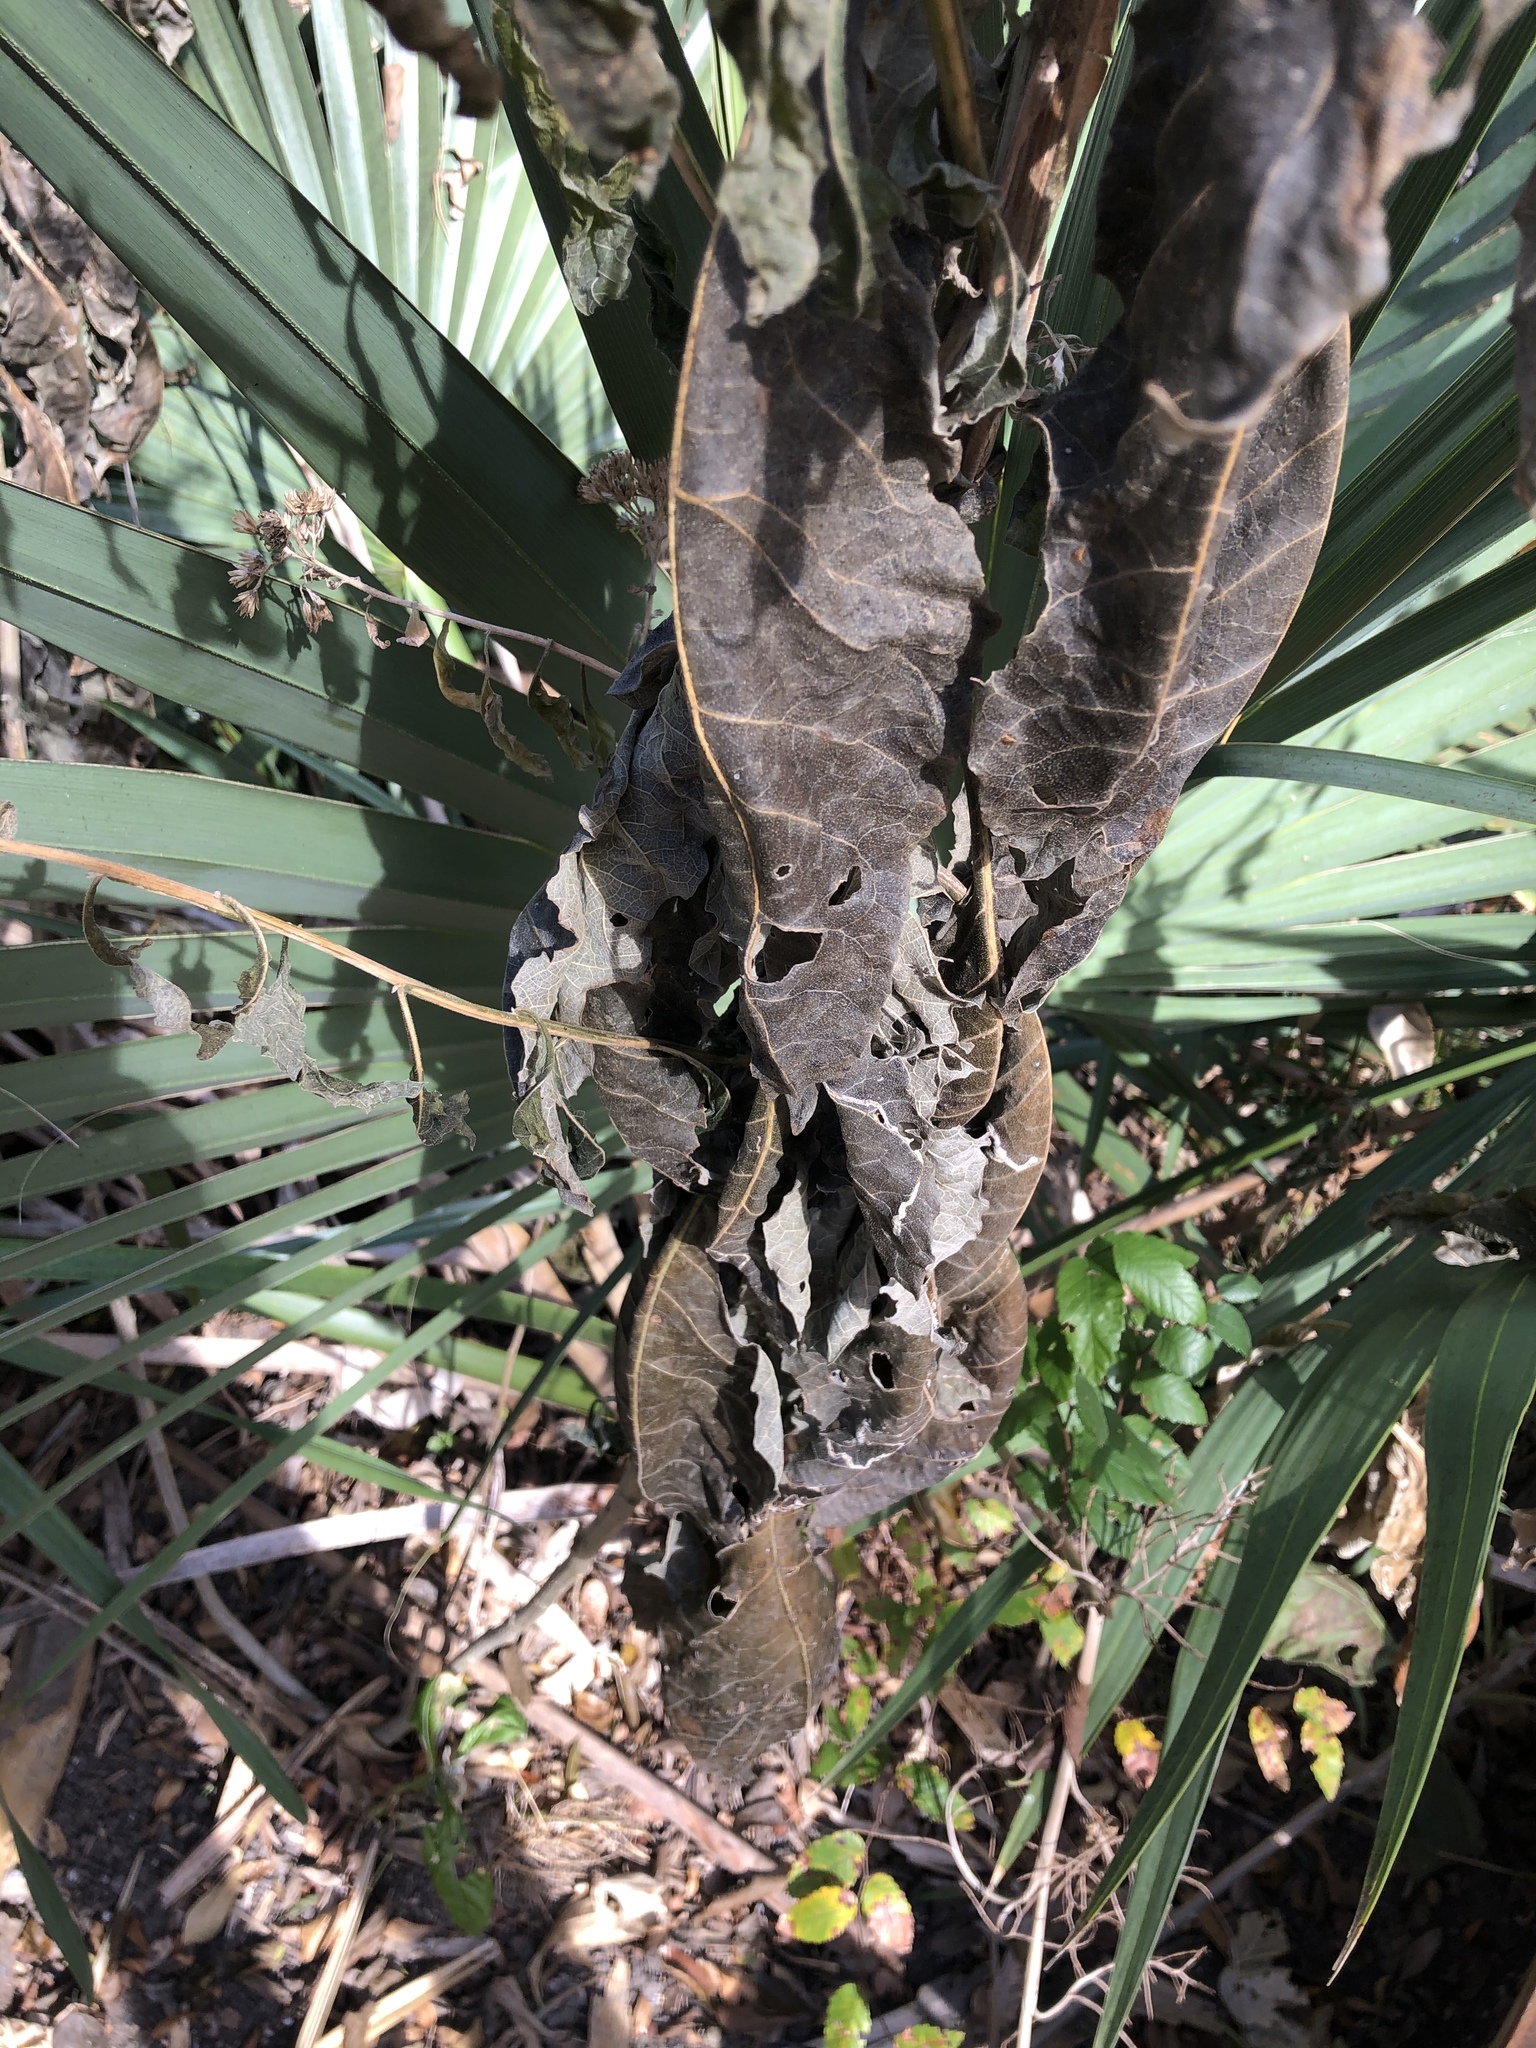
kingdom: Plantae
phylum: Tracheophyta
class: Magnoliopsida
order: Asterales
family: Asteraceae
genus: Verbesina
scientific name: Verbesina virginica
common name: Frostweed
